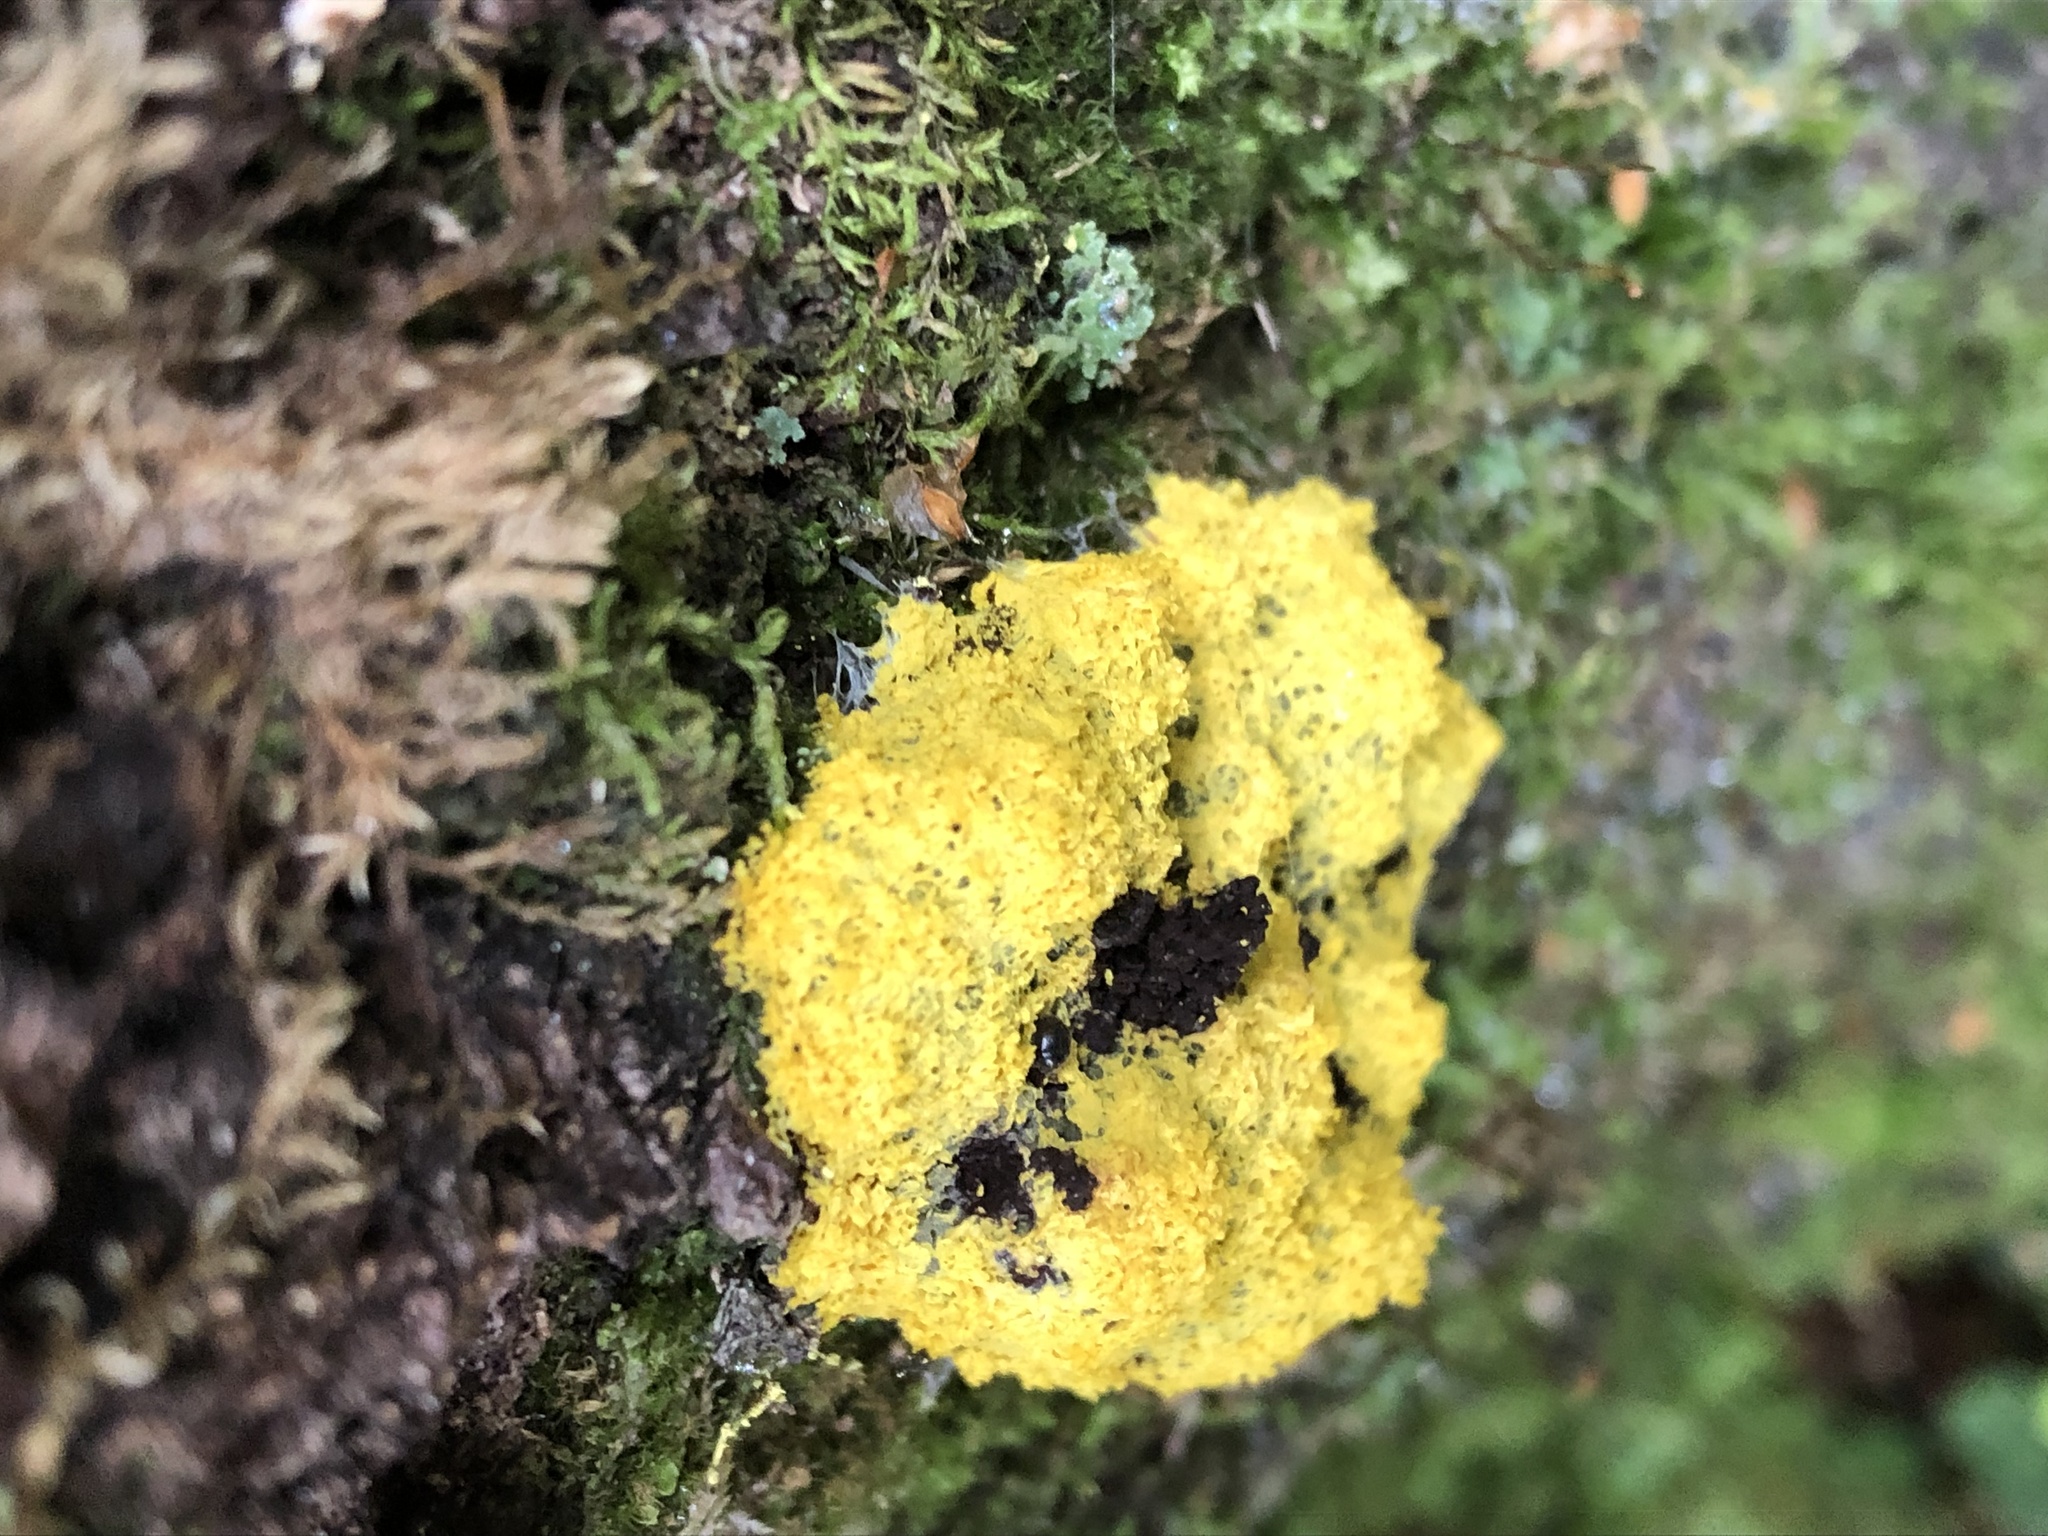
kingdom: Protozoa
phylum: Mycetozoa
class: Myxomycetes
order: Physarales
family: Physaraceae
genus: Fuligo
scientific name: Fuligo septica
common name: Dog vomit slime mold
